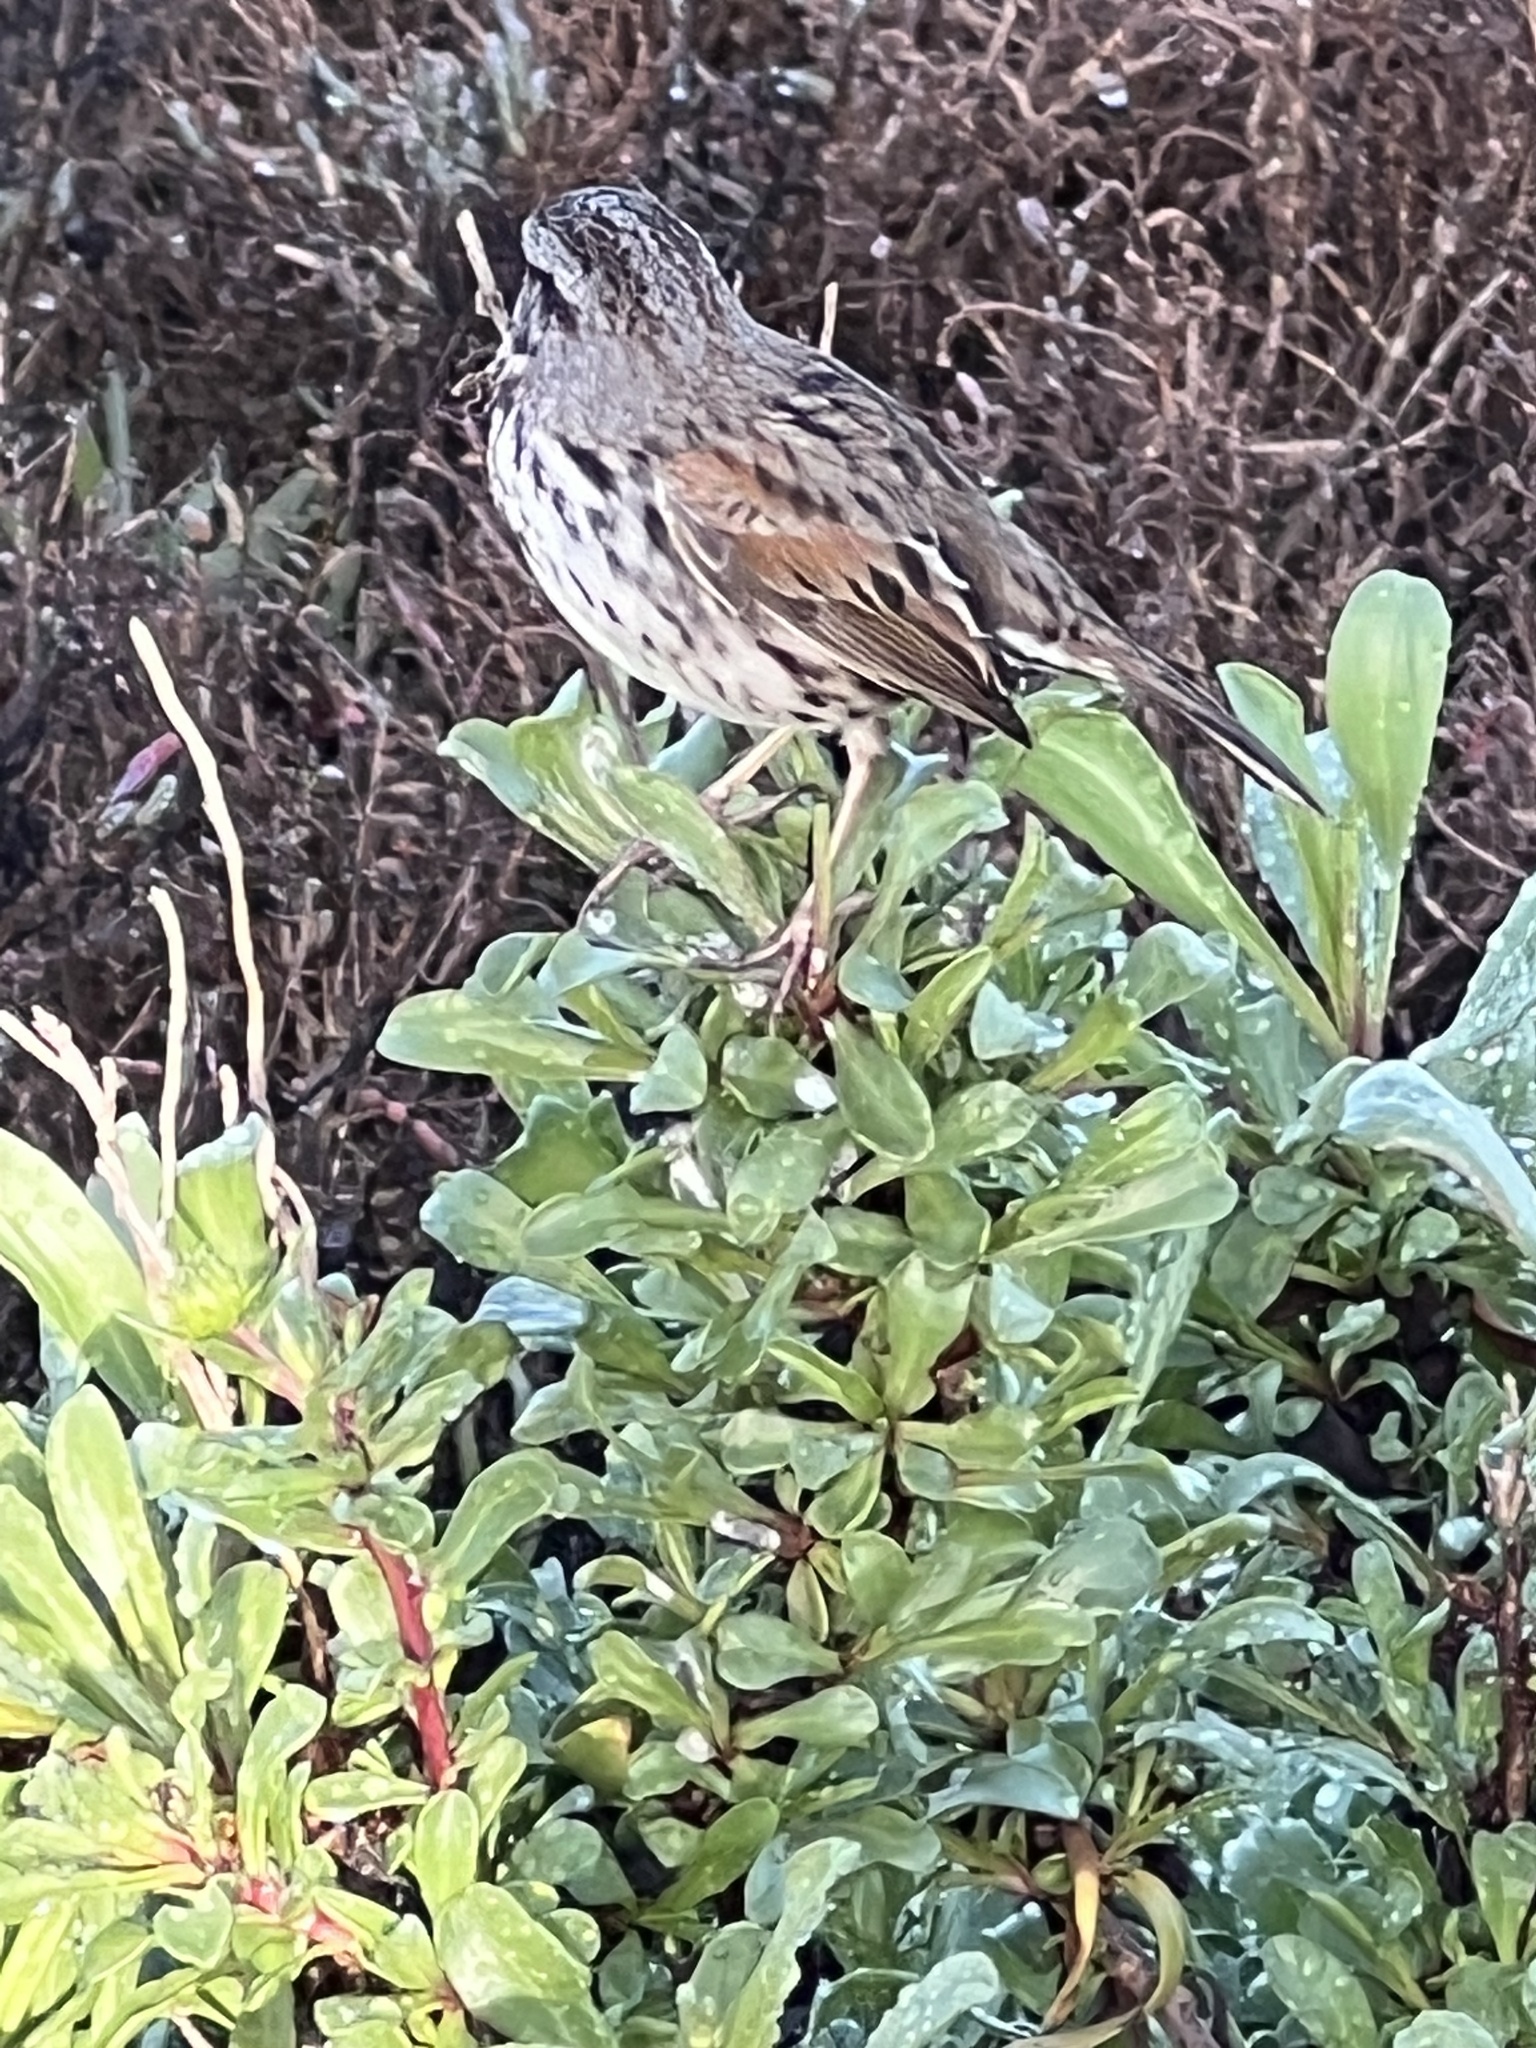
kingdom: Animalia
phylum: Chordata
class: Aves
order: Passeriformes
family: Passerellidae
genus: Melospiza
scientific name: Melospiza melodia
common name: Song sparrow
